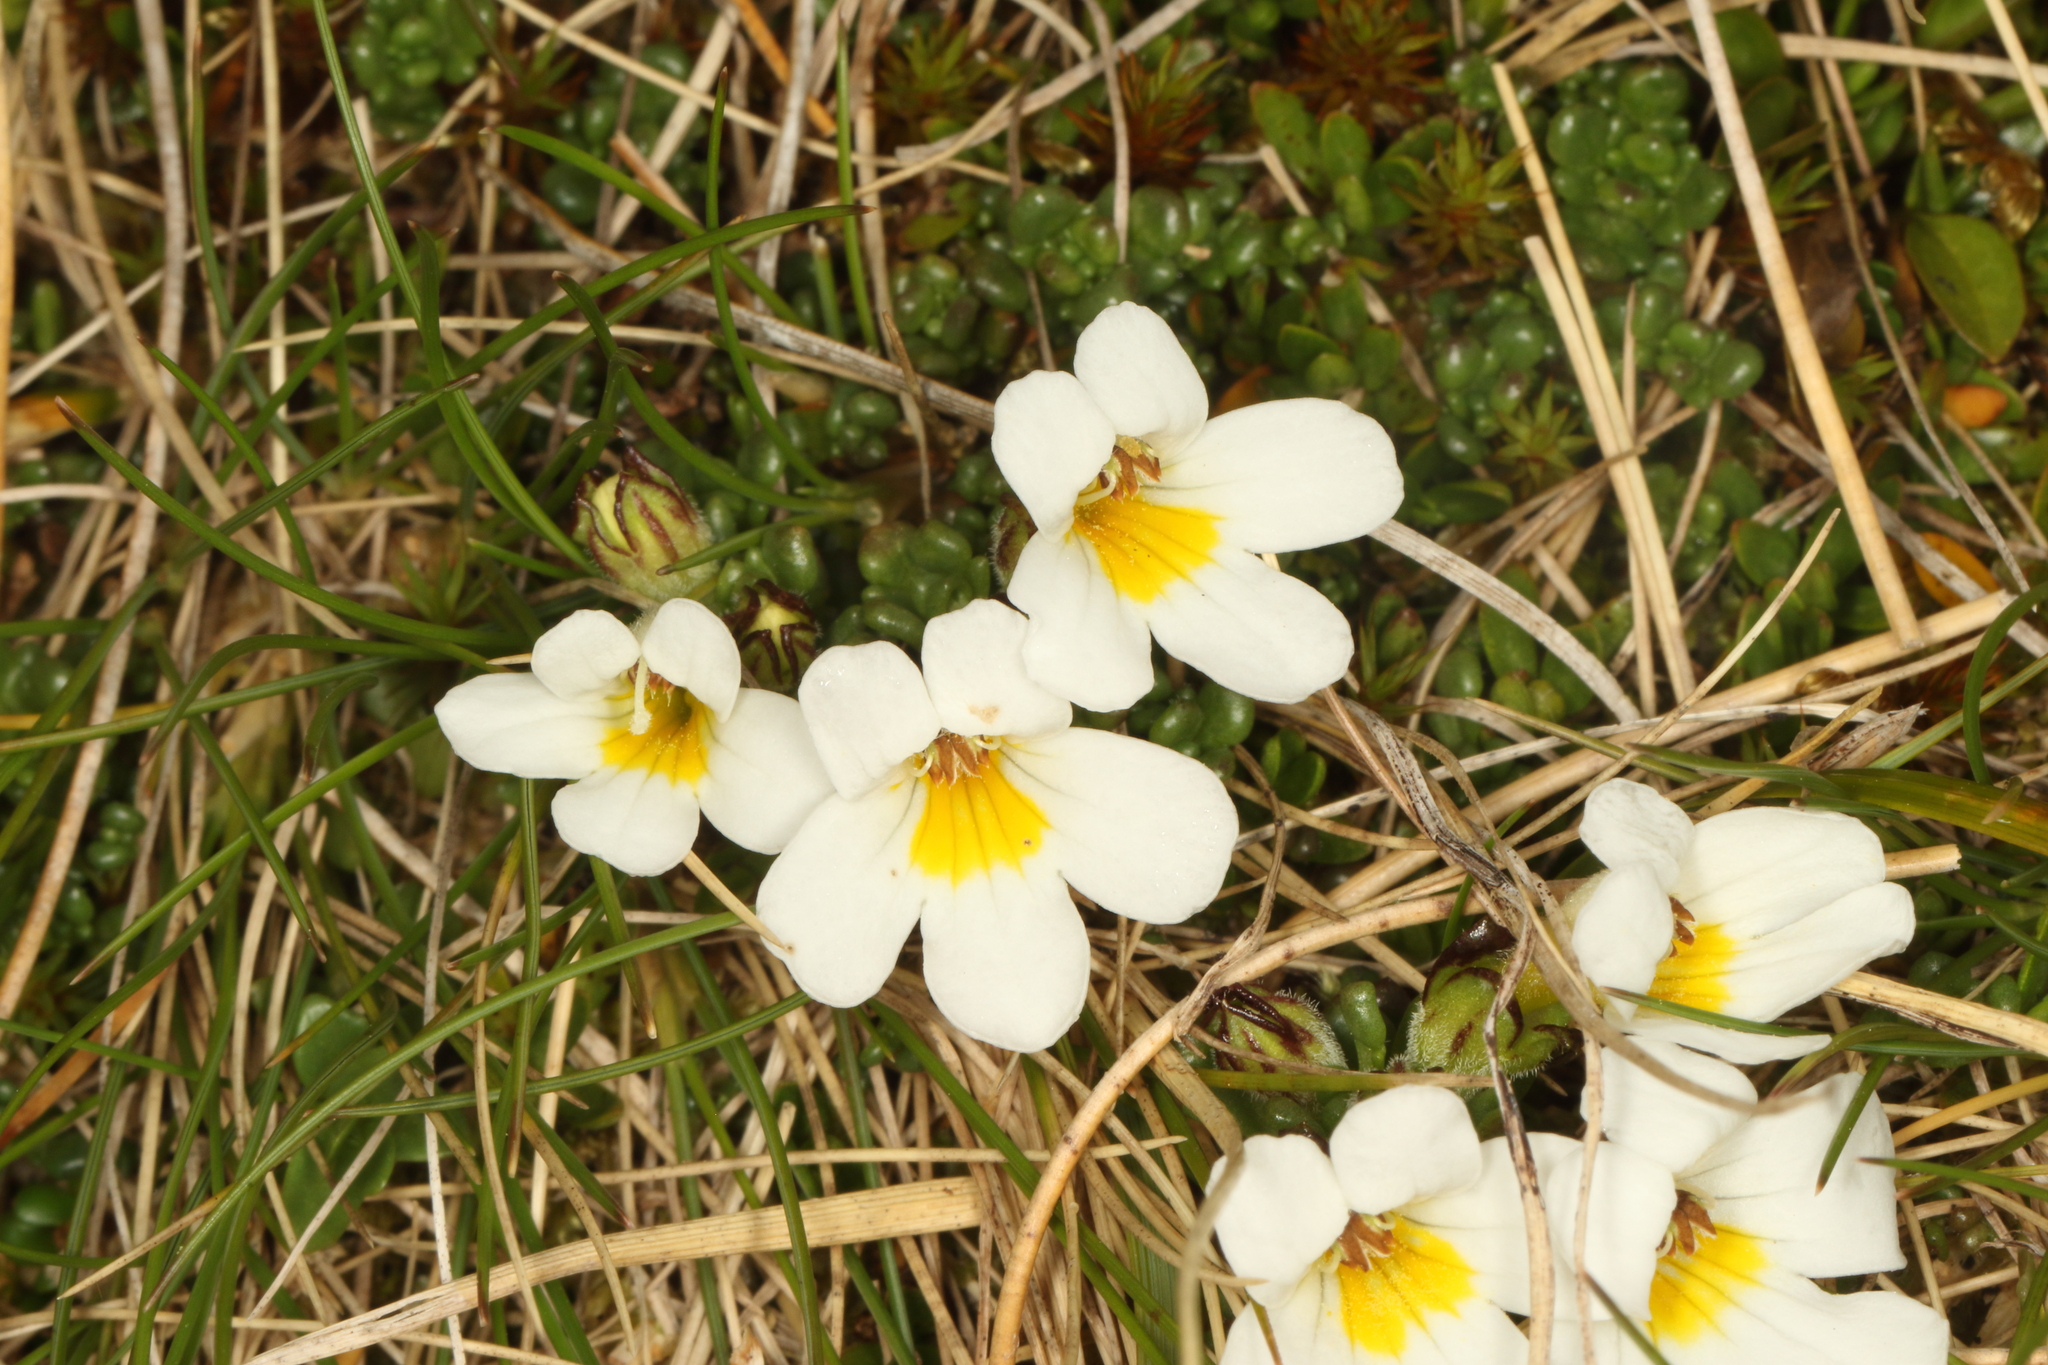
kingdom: Plantae
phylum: Tracheophyta
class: Magnoliopsida
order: Lamiales
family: Orobanchaceae
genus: Euphrasia
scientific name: Euphrasia revoluta
